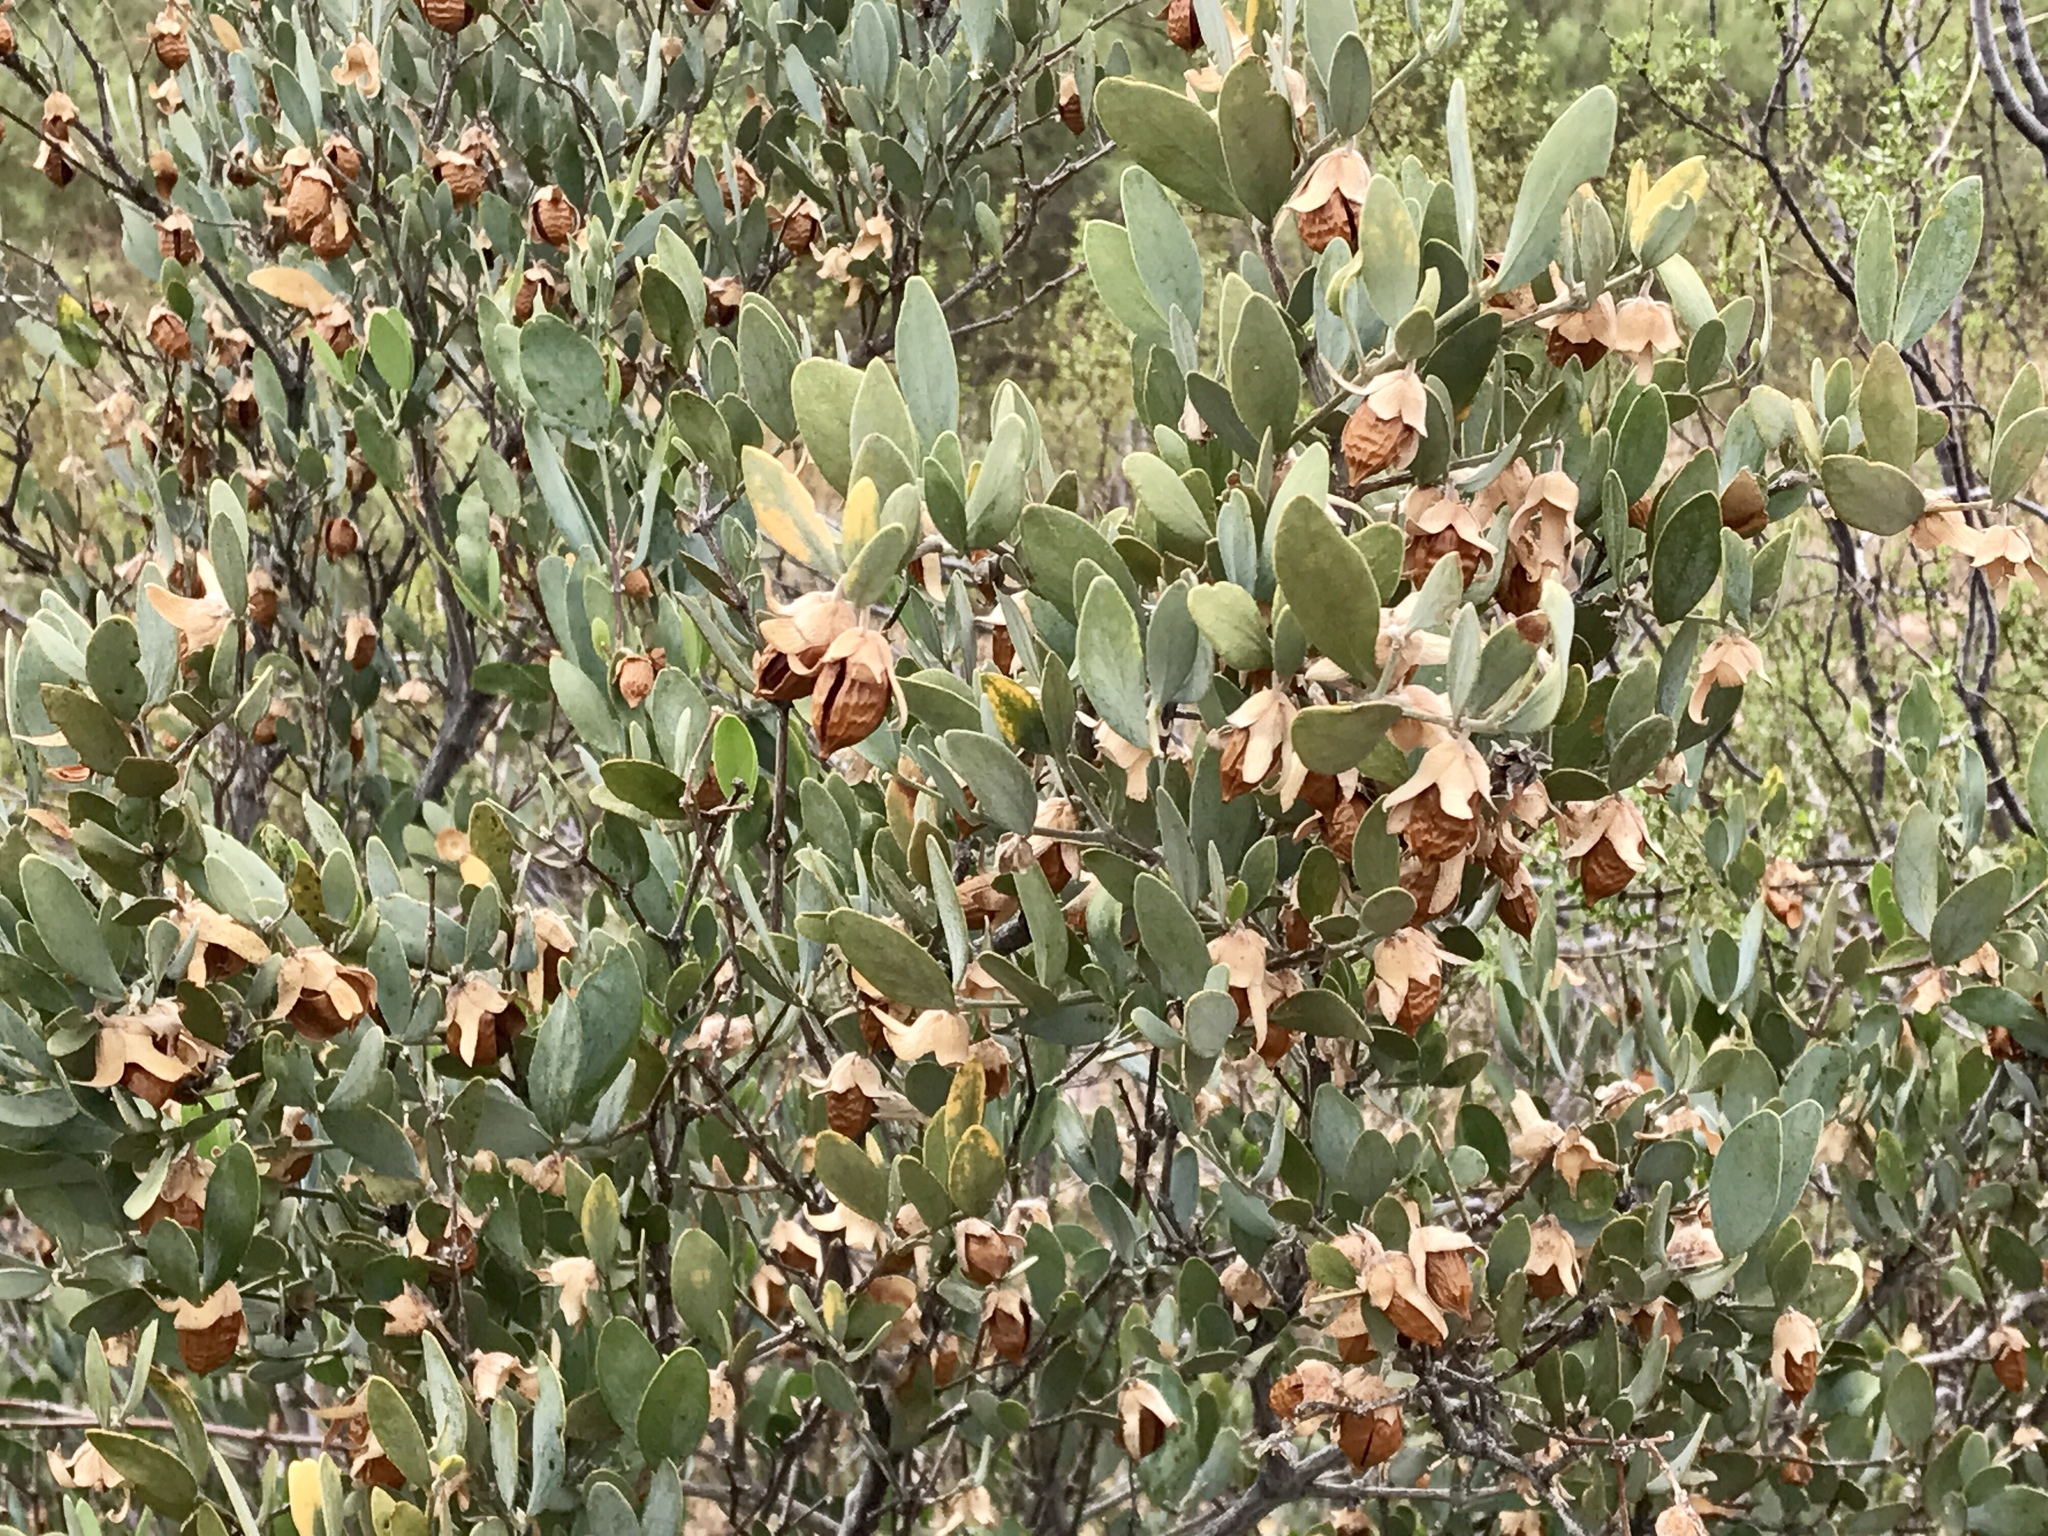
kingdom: Plantae
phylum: Tracheophyta
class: Magnoliopsida
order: Caryophyllales
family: Simmondsiaceae
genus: Simmondsia
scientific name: Simmondsia chinensis
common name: Jojoba
